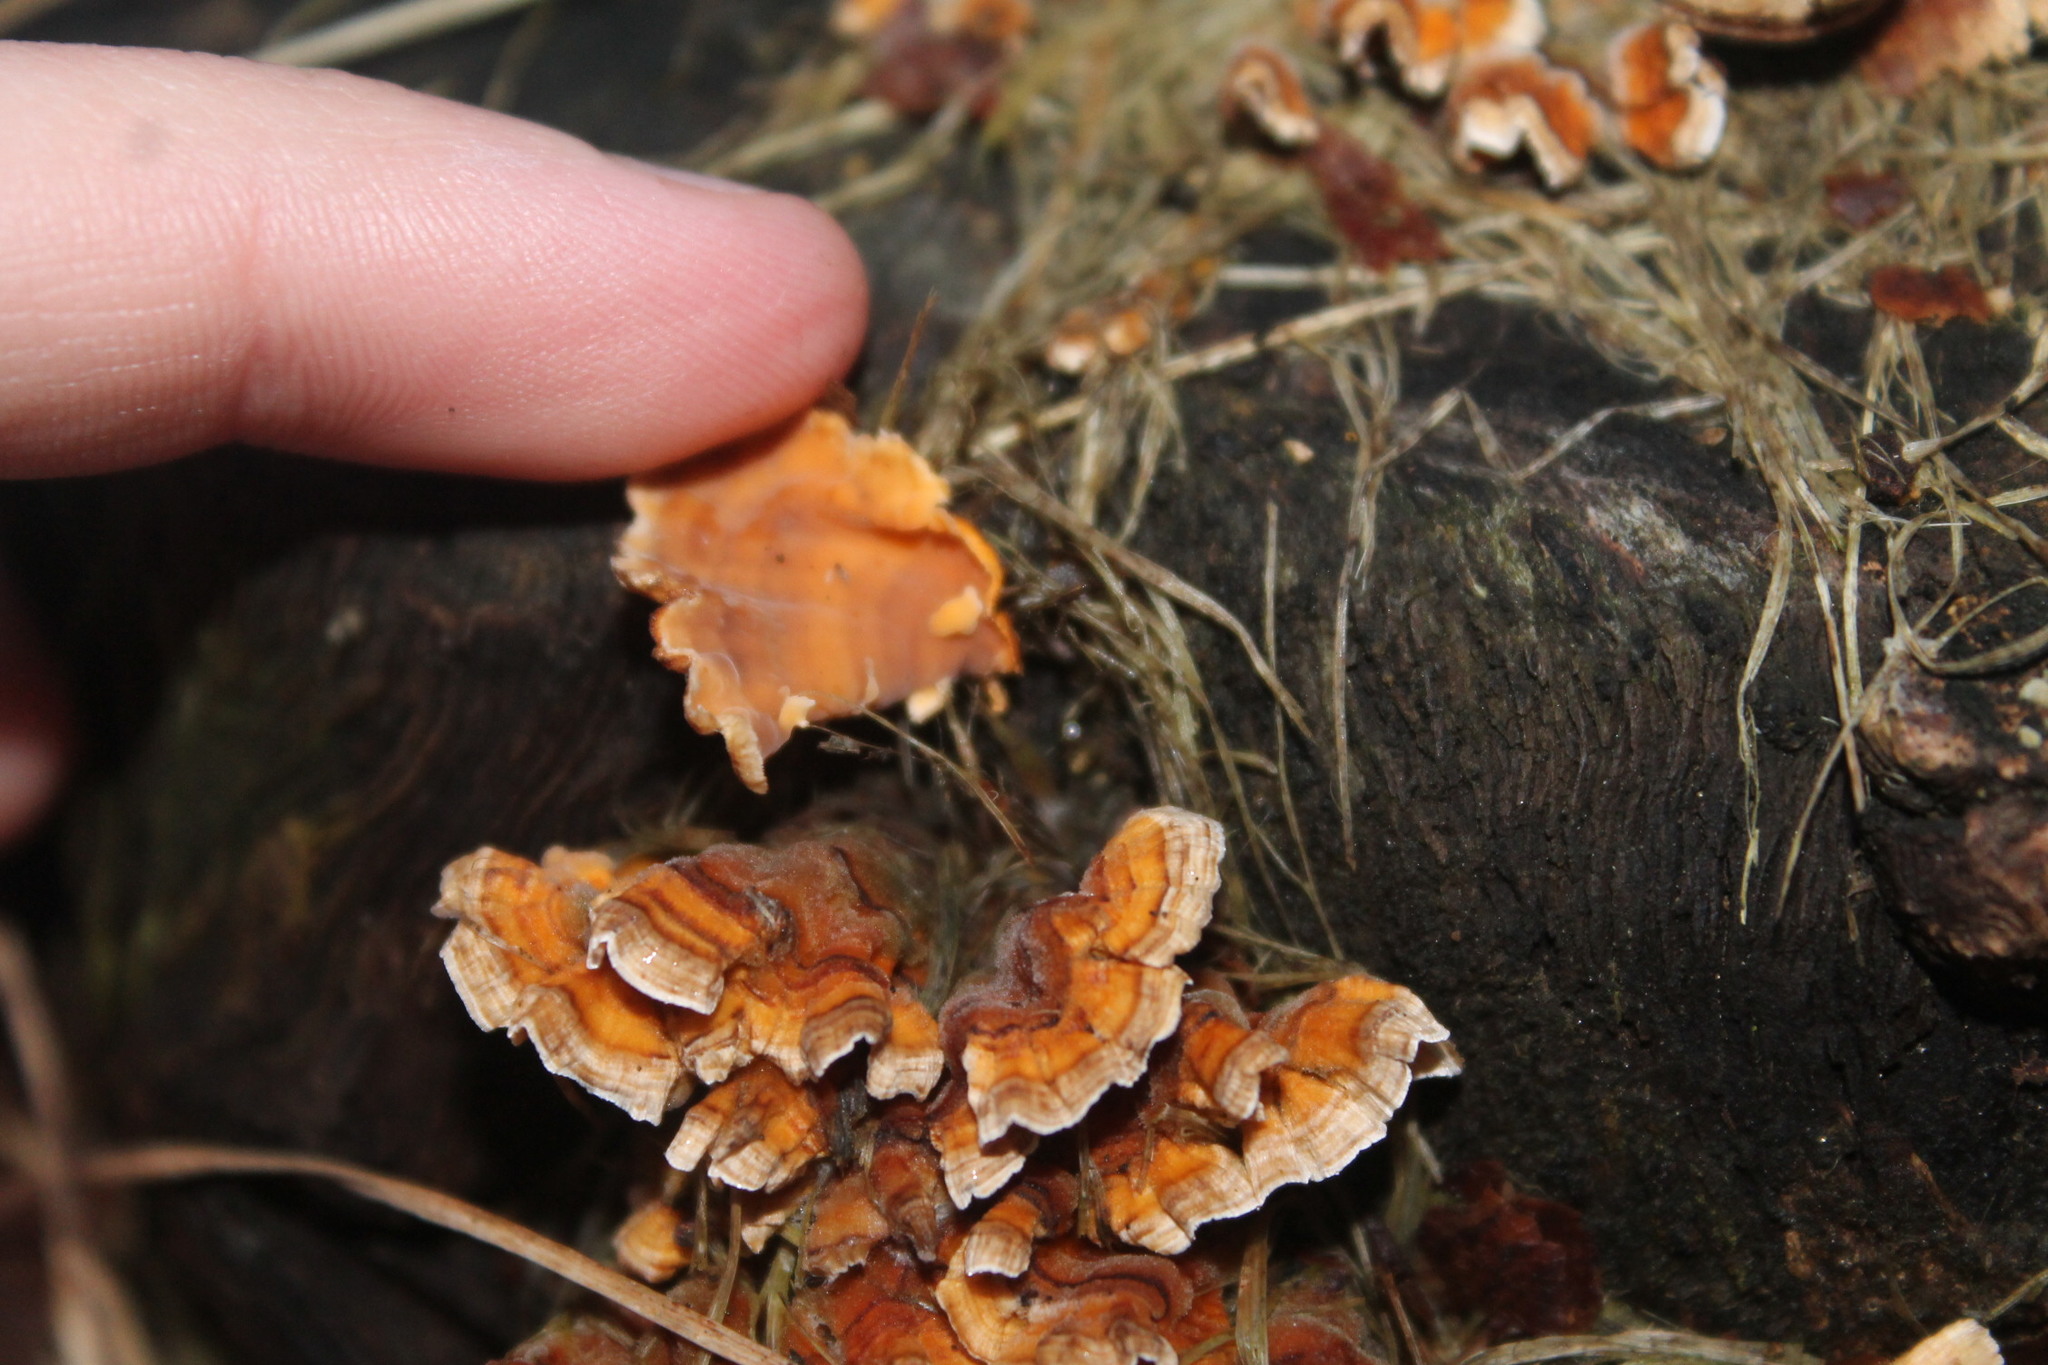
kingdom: Fungi
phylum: Basidiomycota
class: Agaricomycetes
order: Russulales
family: Stereaceae
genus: Stereum
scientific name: Stereum complicatum
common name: Crowded parchment
